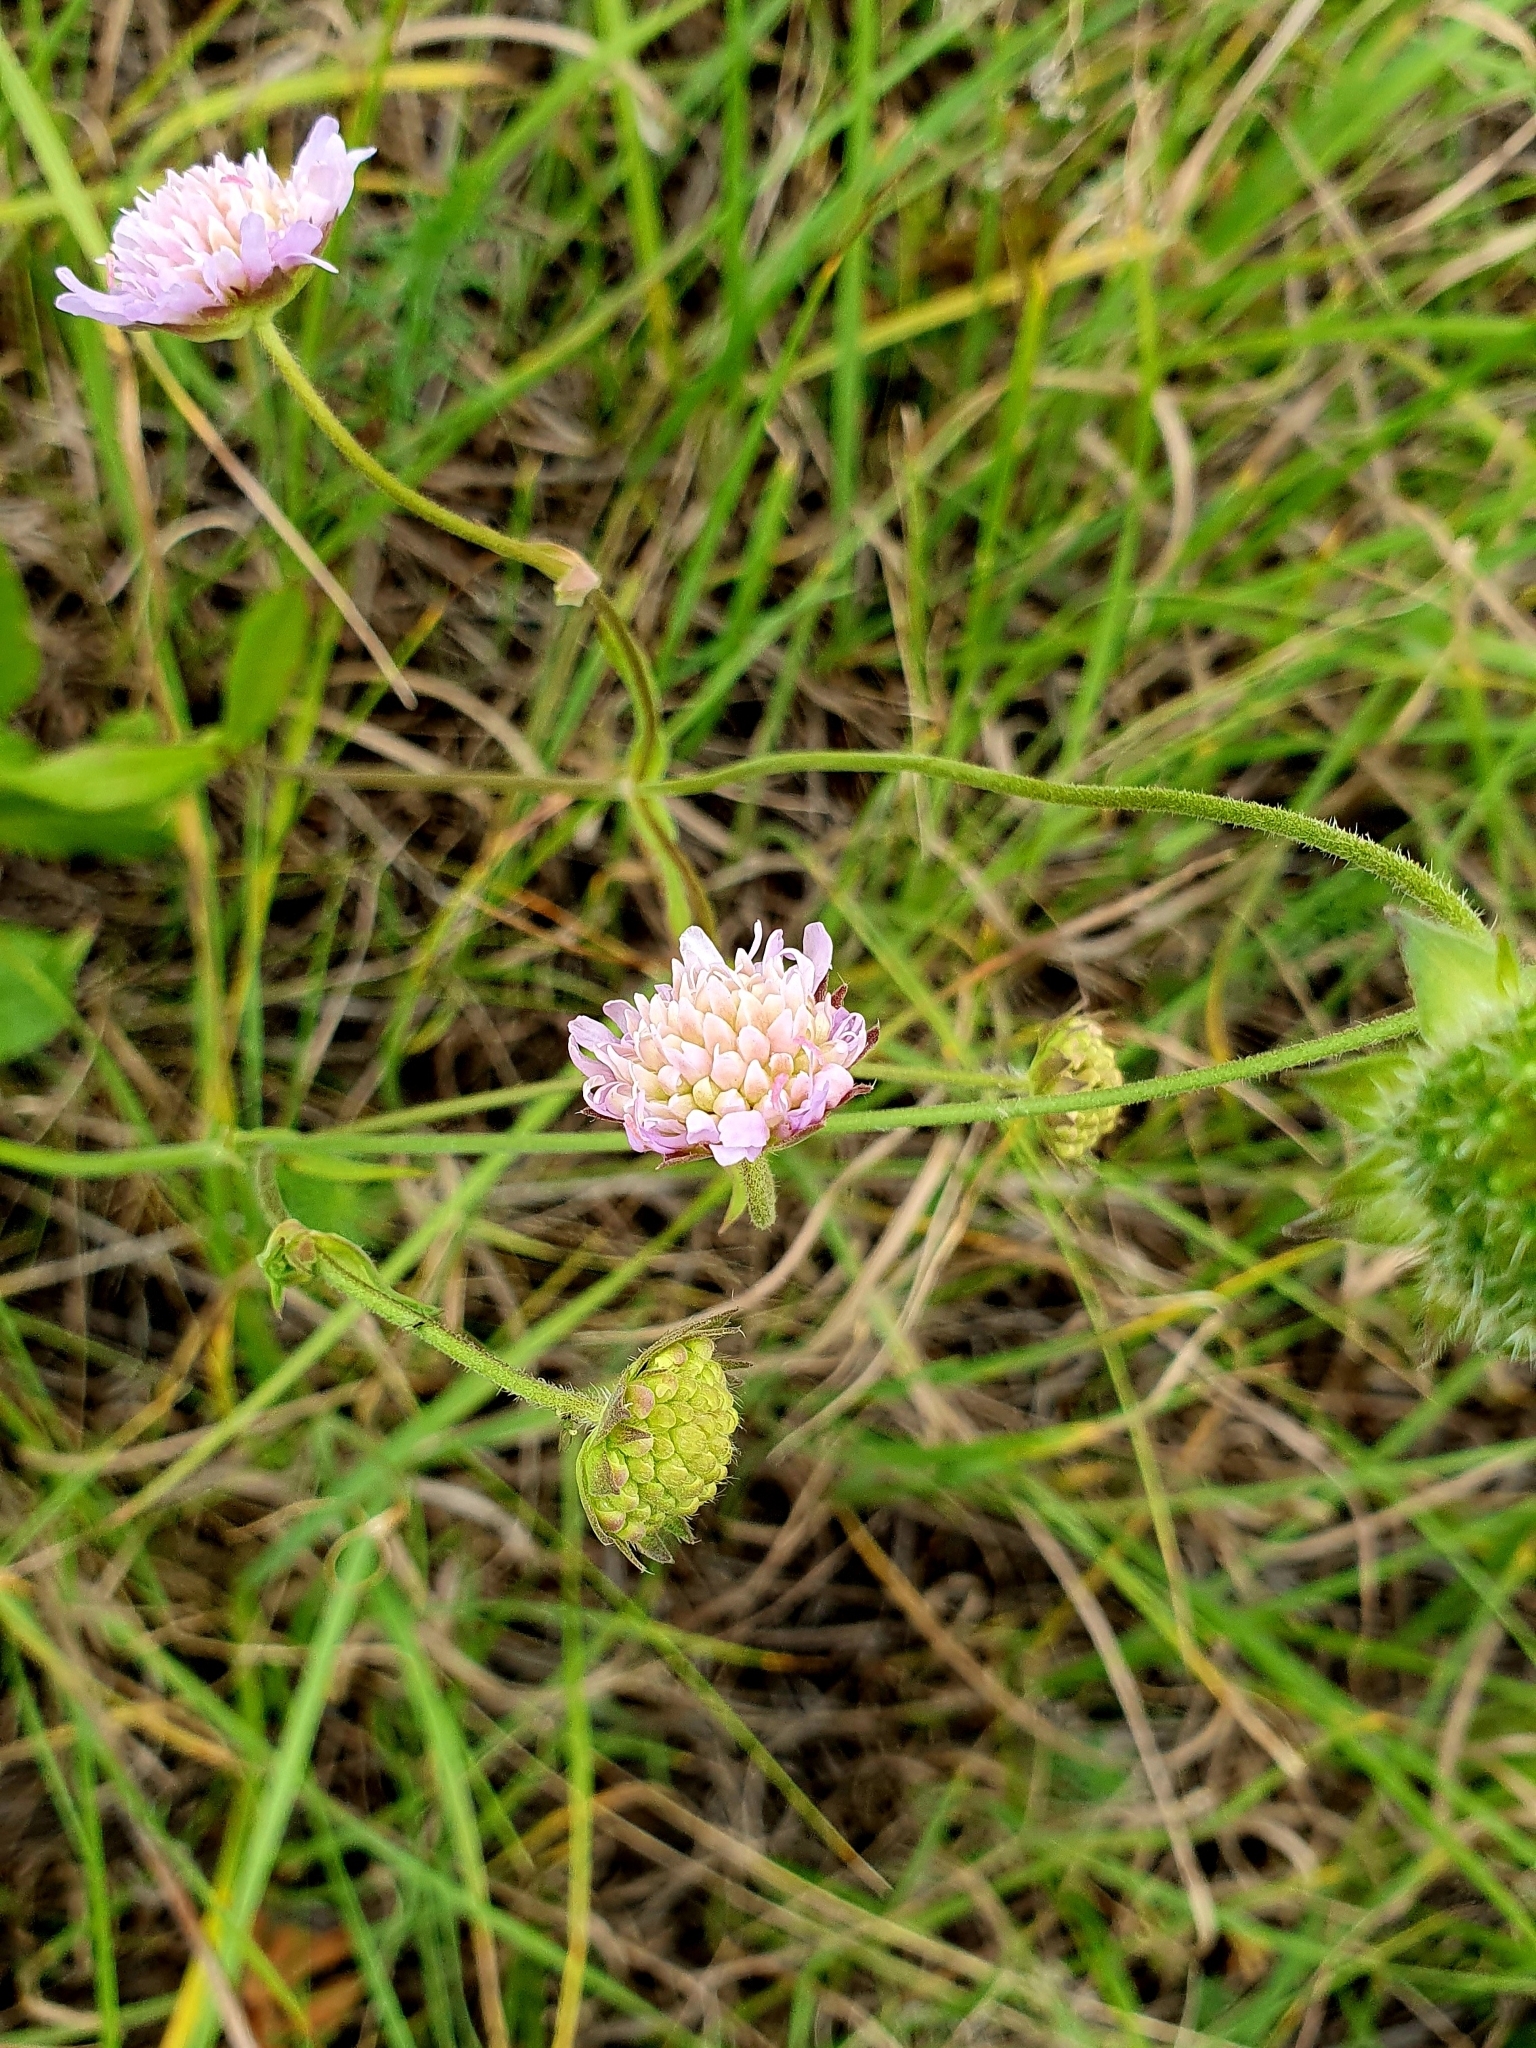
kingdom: Plantae
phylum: Tracheophyta
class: Magnoliopsida
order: Dipsacales
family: Caprifoliaceae
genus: Knautia
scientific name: Knautia arvensis
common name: Field scabiosa
